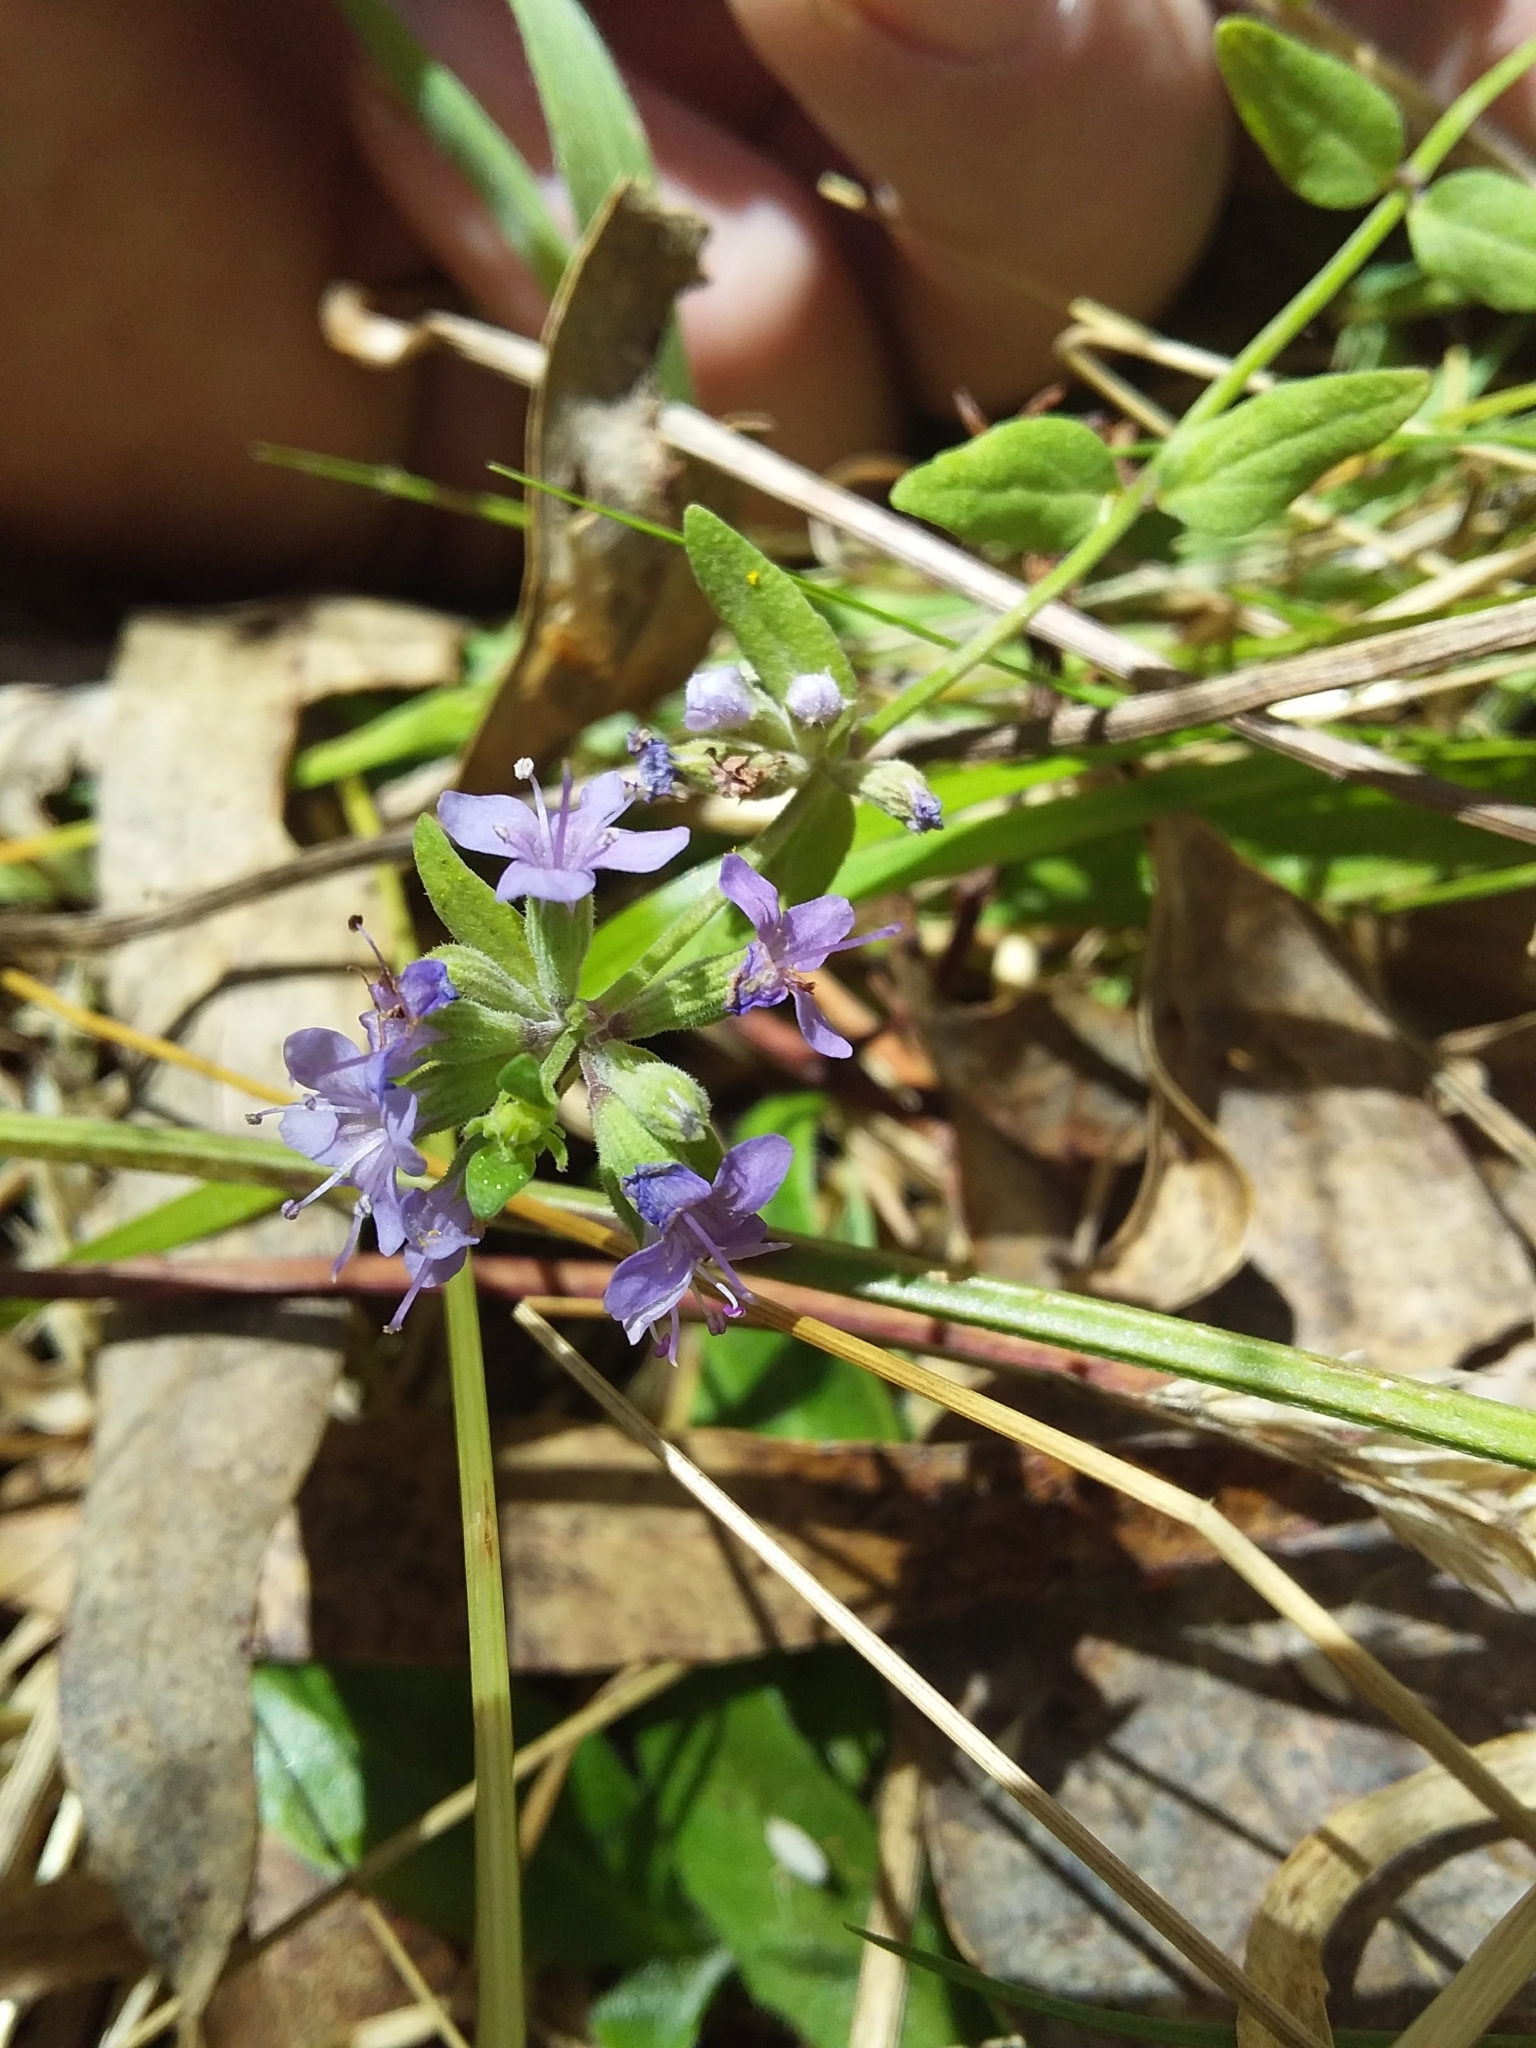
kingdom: Plantae
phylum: Tracheophyta
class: Magnoliopsida
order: Lamiales
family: Lamiaceae
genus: Mentha
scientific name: Mentha diemenica
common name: Wild mint
